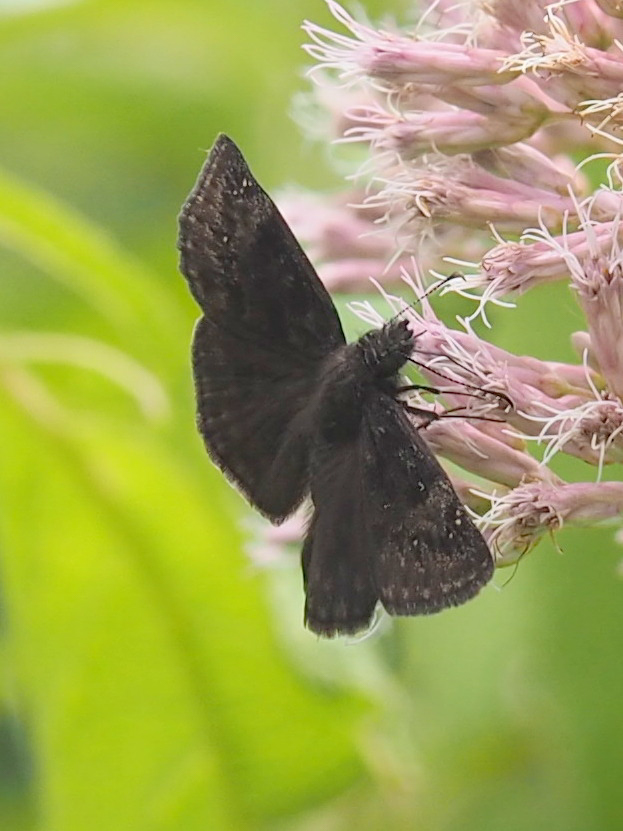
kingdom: Animalia
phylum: Arthropoda
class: Insecta
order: Lepidoptera
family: Hesperiidae
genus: Erynnis
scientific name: Erynnis baptisiae
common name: Wild indigo duskywing
